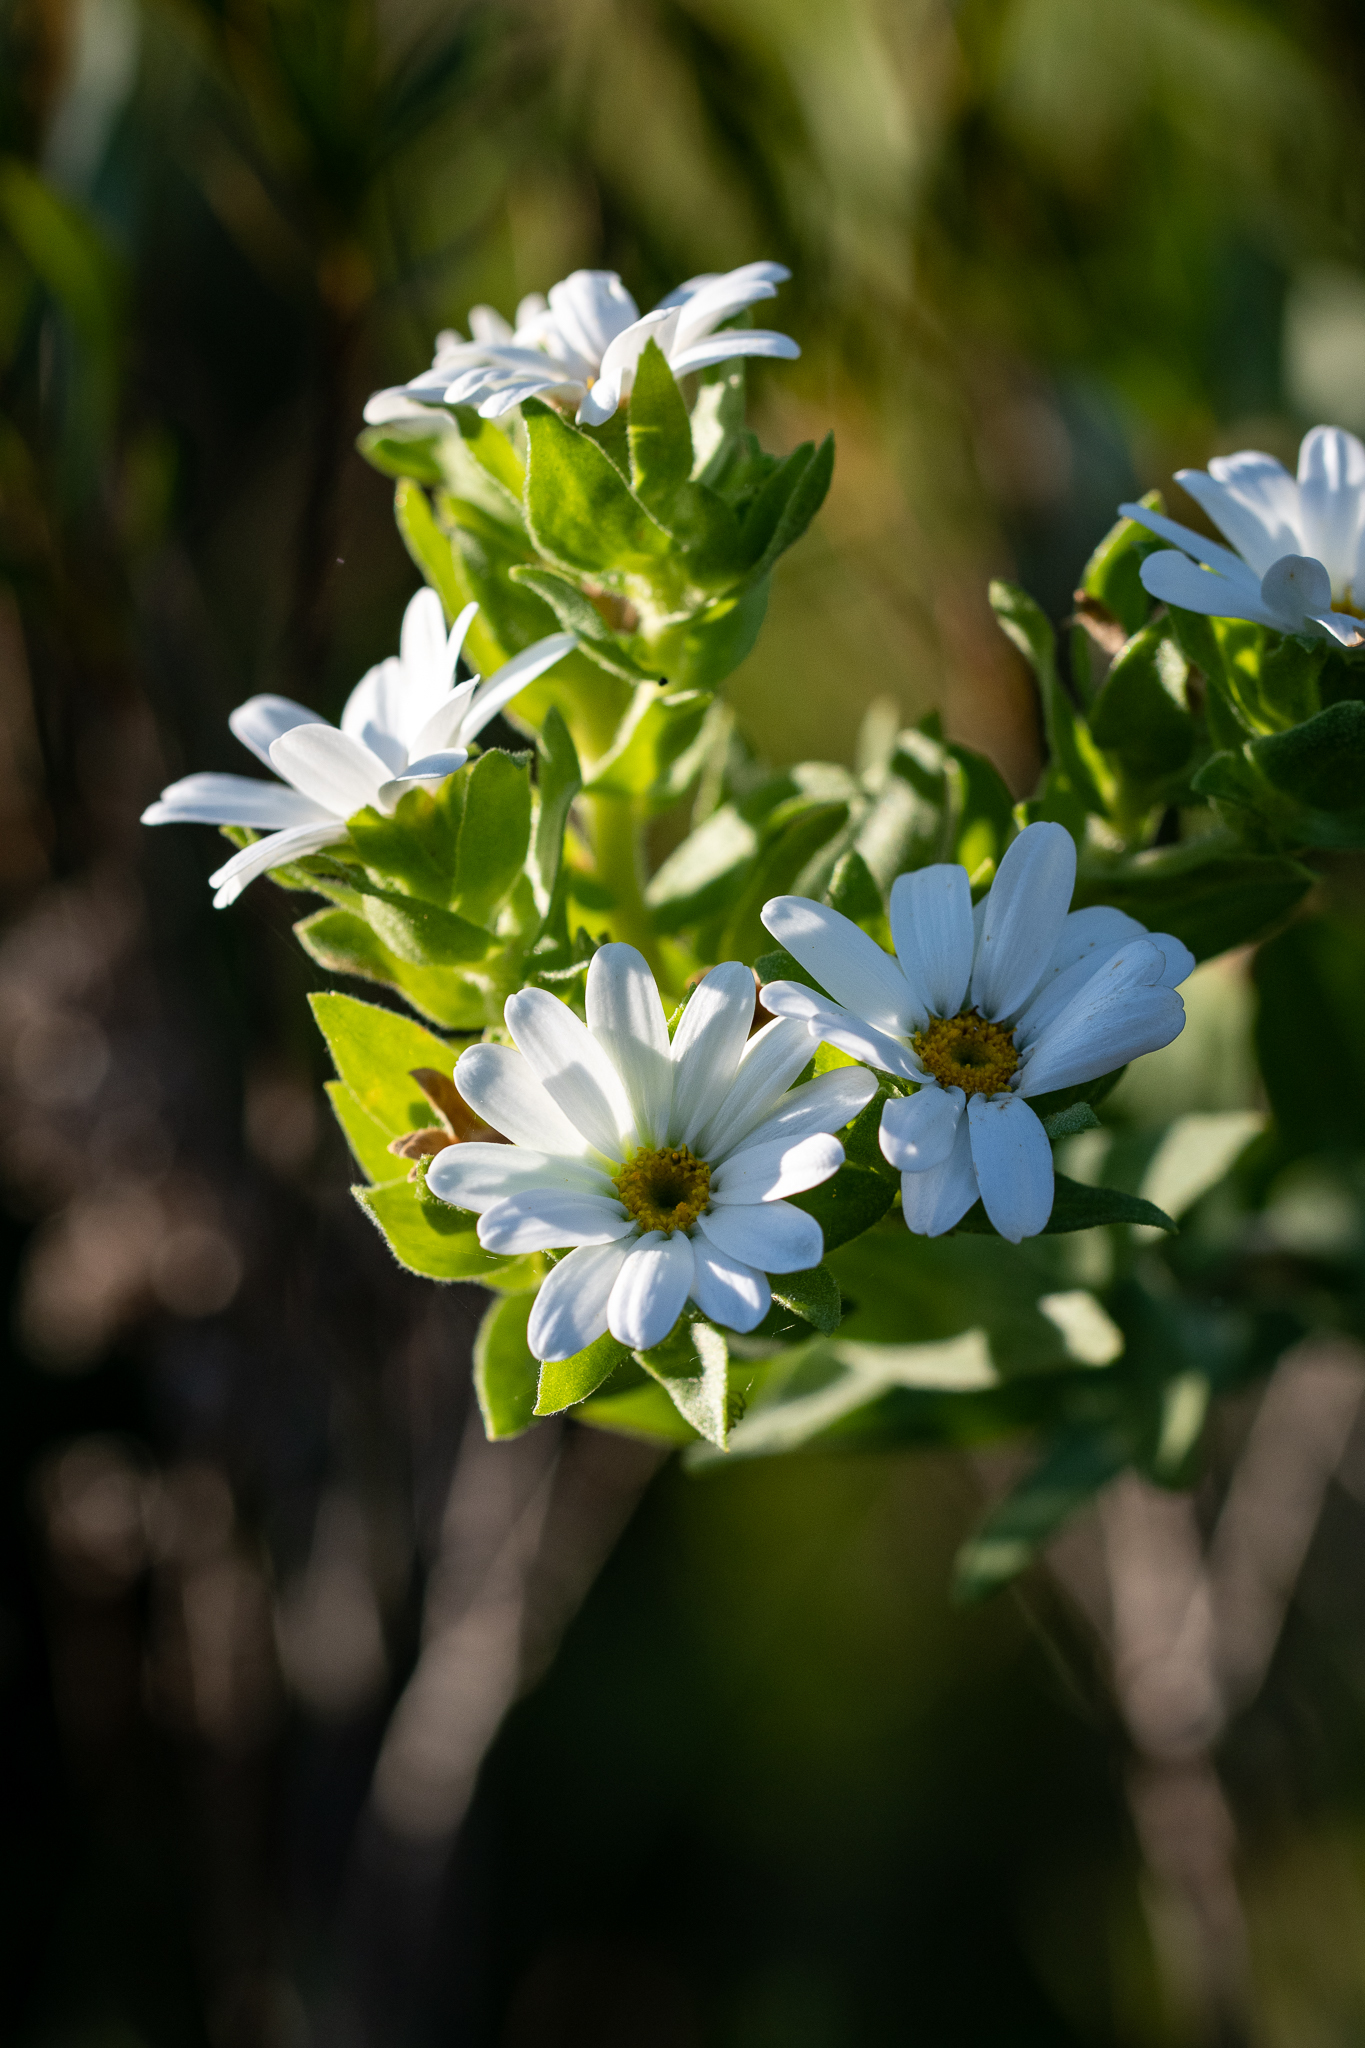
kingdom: Plantae
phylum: Tracheophyta
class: Magnoliopsida
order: Asterales
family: Asteraceae
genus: Osmitopsis
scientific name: Osmitopsis asteriscoides
